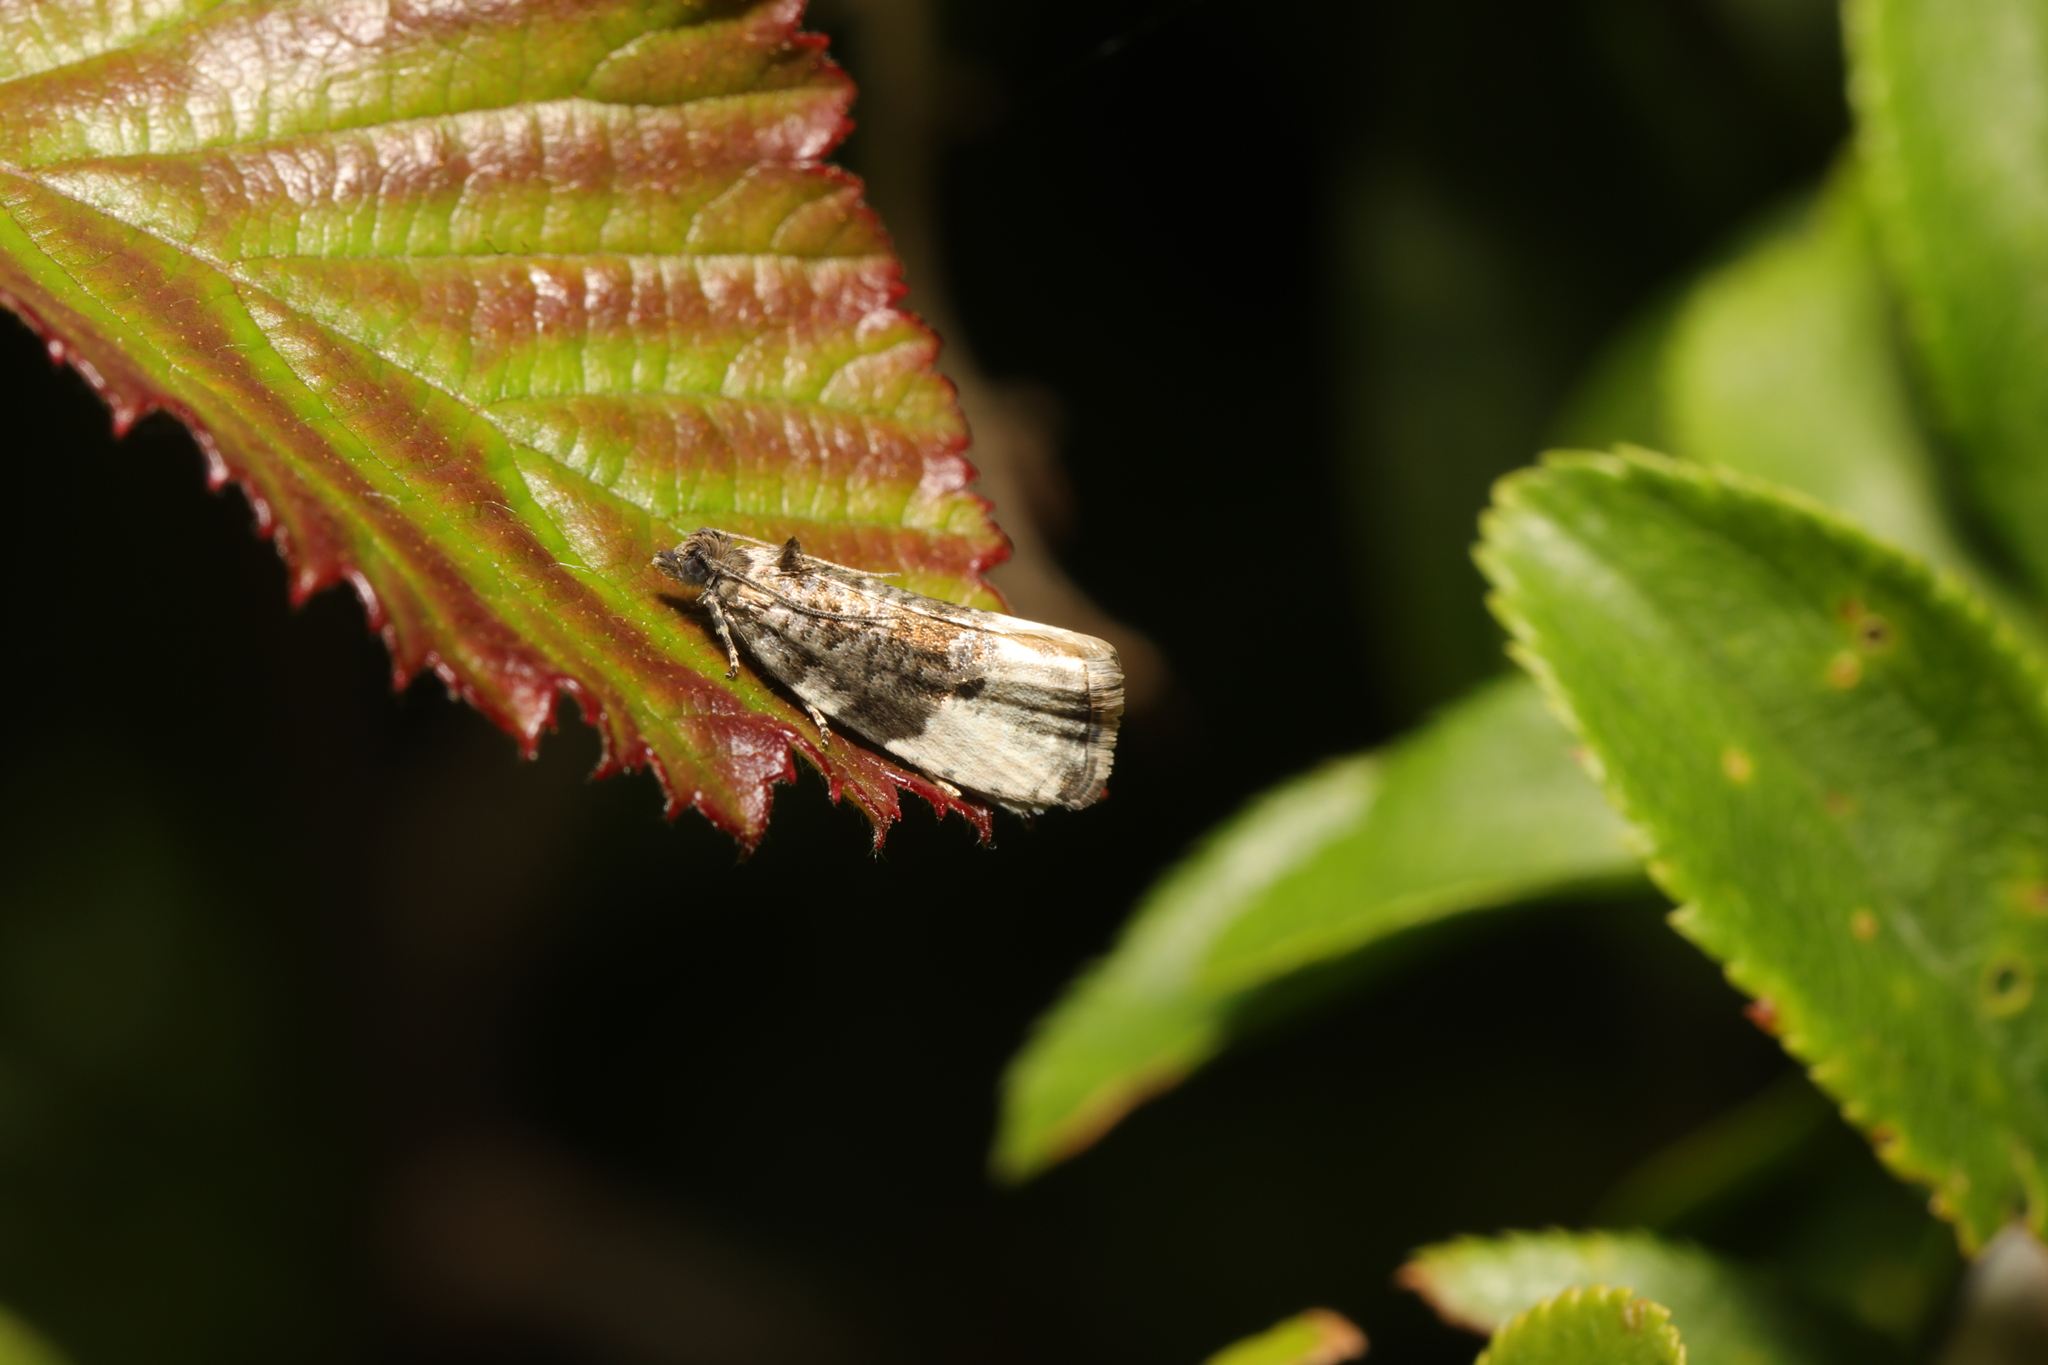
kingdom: Animalia
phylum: Arthropoda
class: Insecta
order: Lepidoptera
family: Tortricidae
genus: Hedya
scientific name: Hedya pruniana
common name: Plum tortrix
